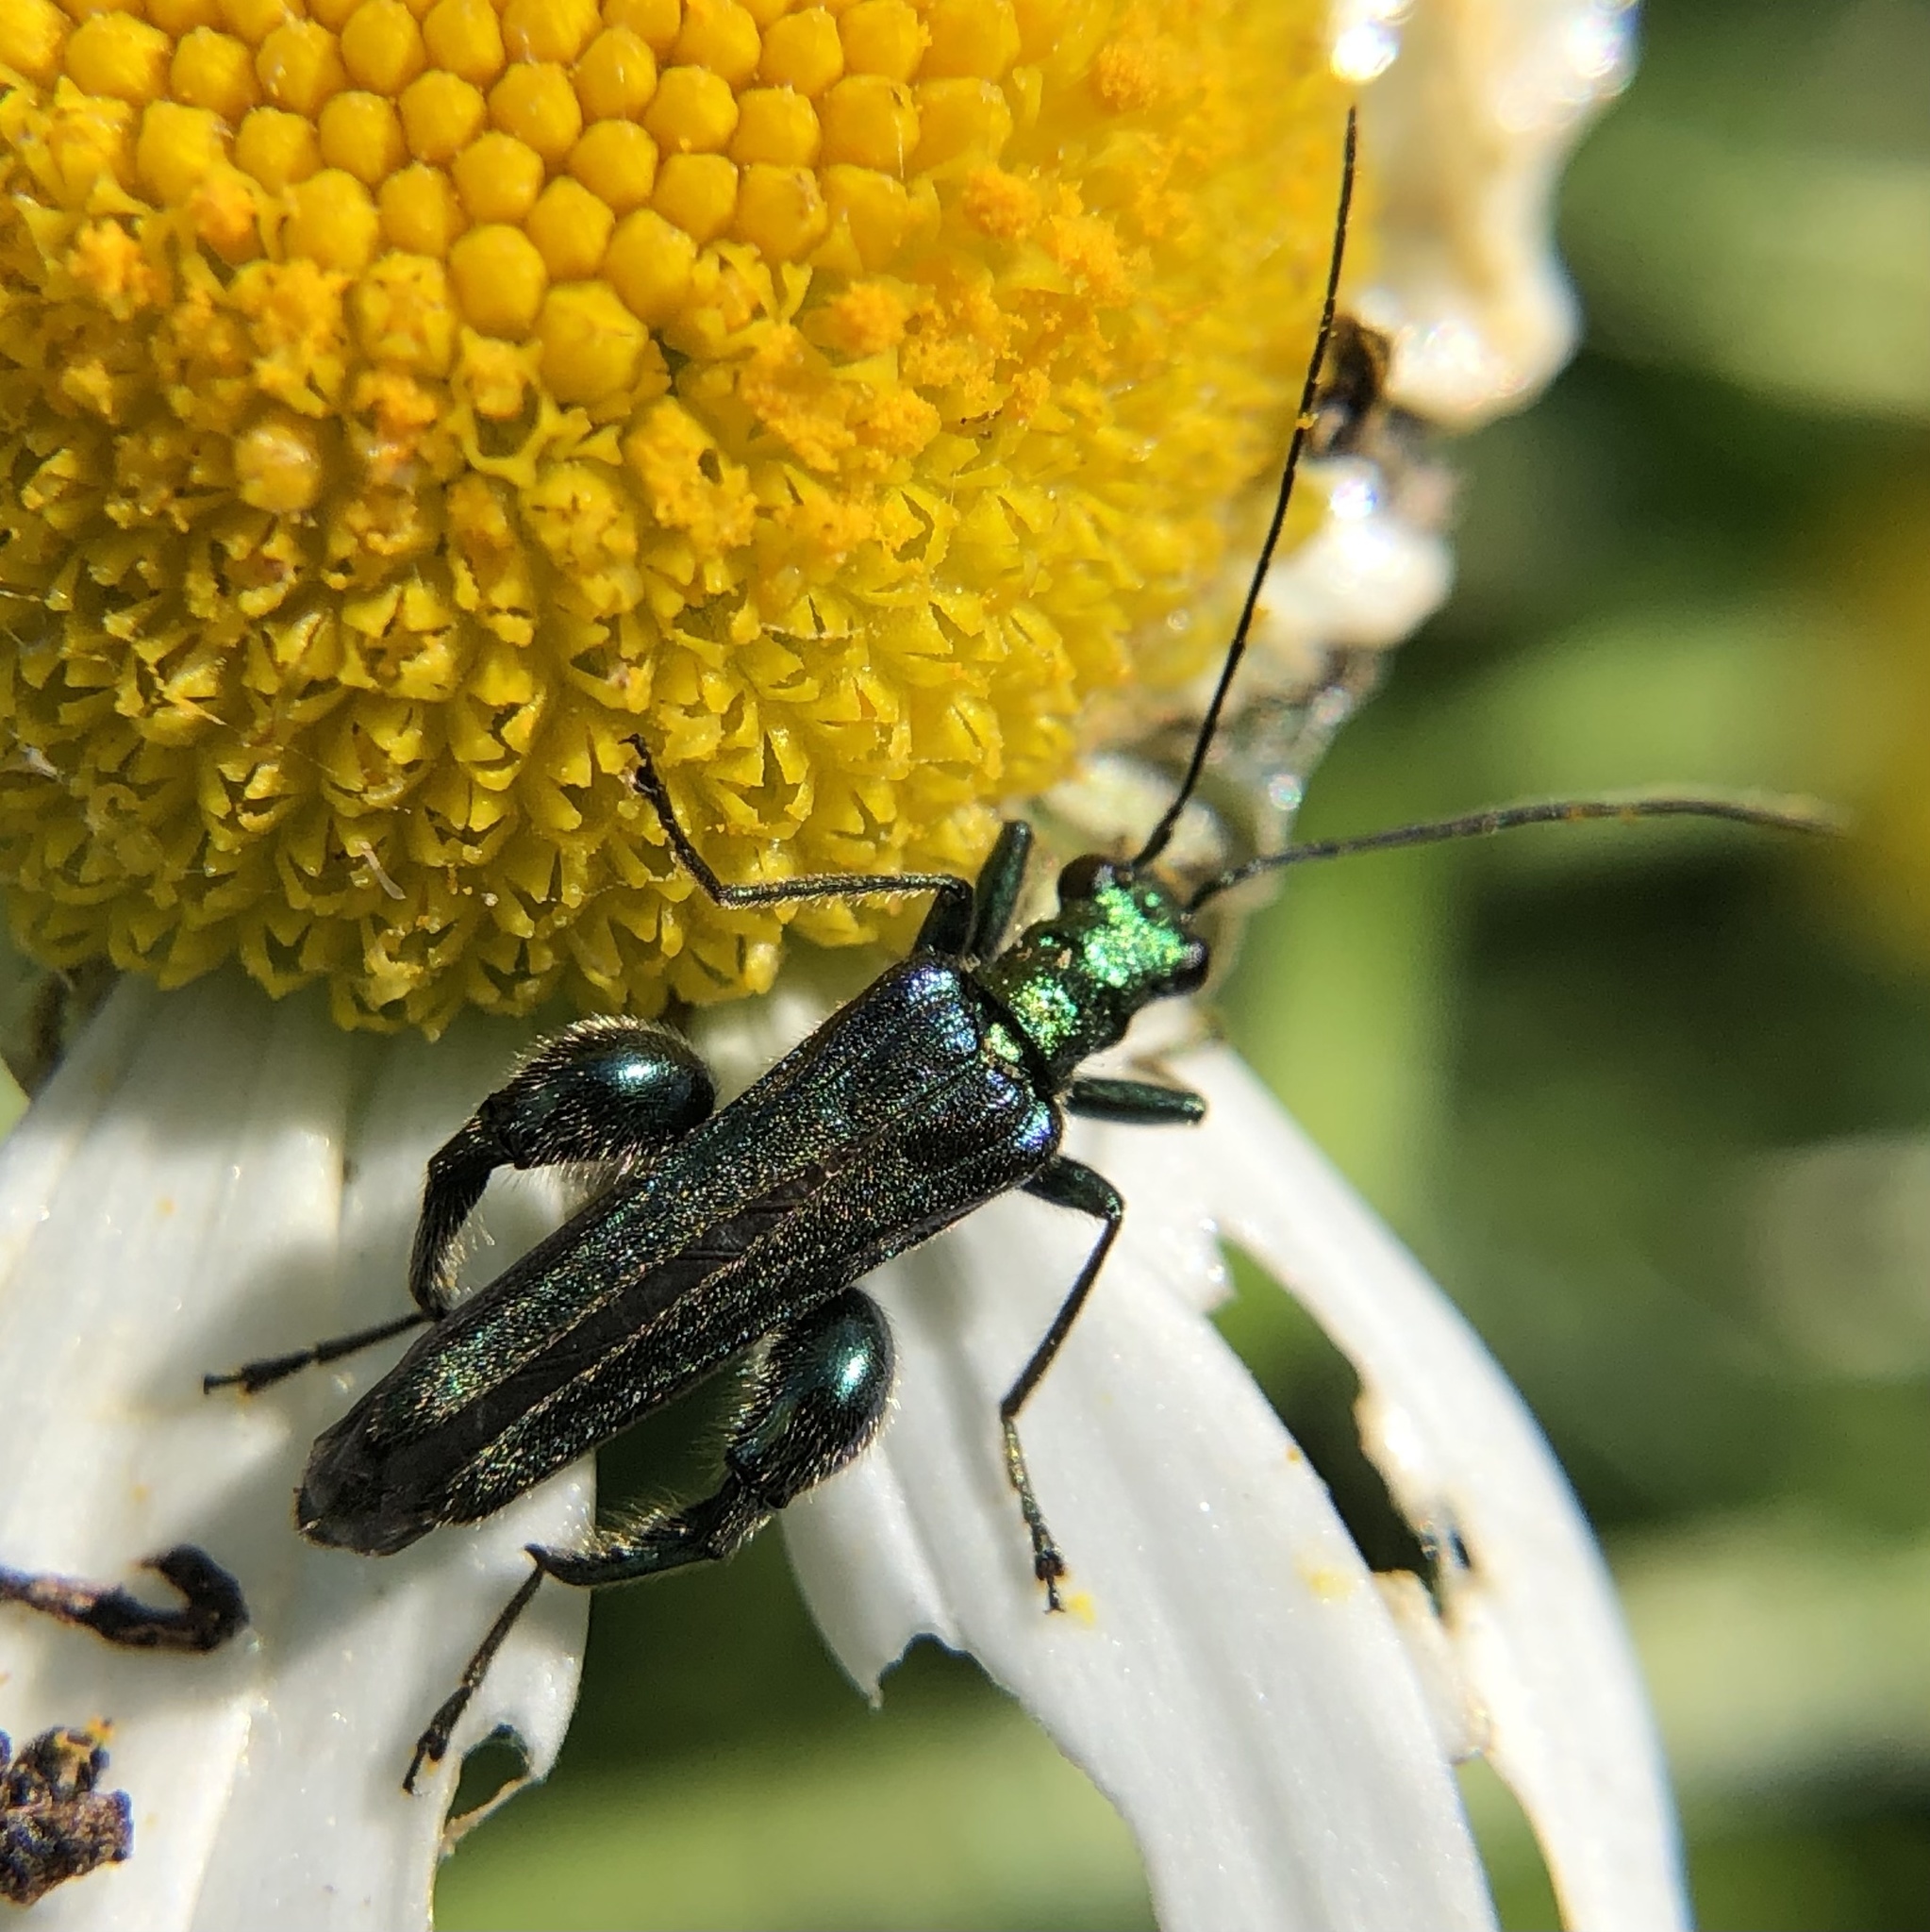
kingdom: Animalia
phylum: Arthropoda
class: Insecta
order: Coleoptera
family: Oedemeridae
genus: Oedemera
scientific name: Oedemera nobilis
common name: Swollen-thighed beetle
